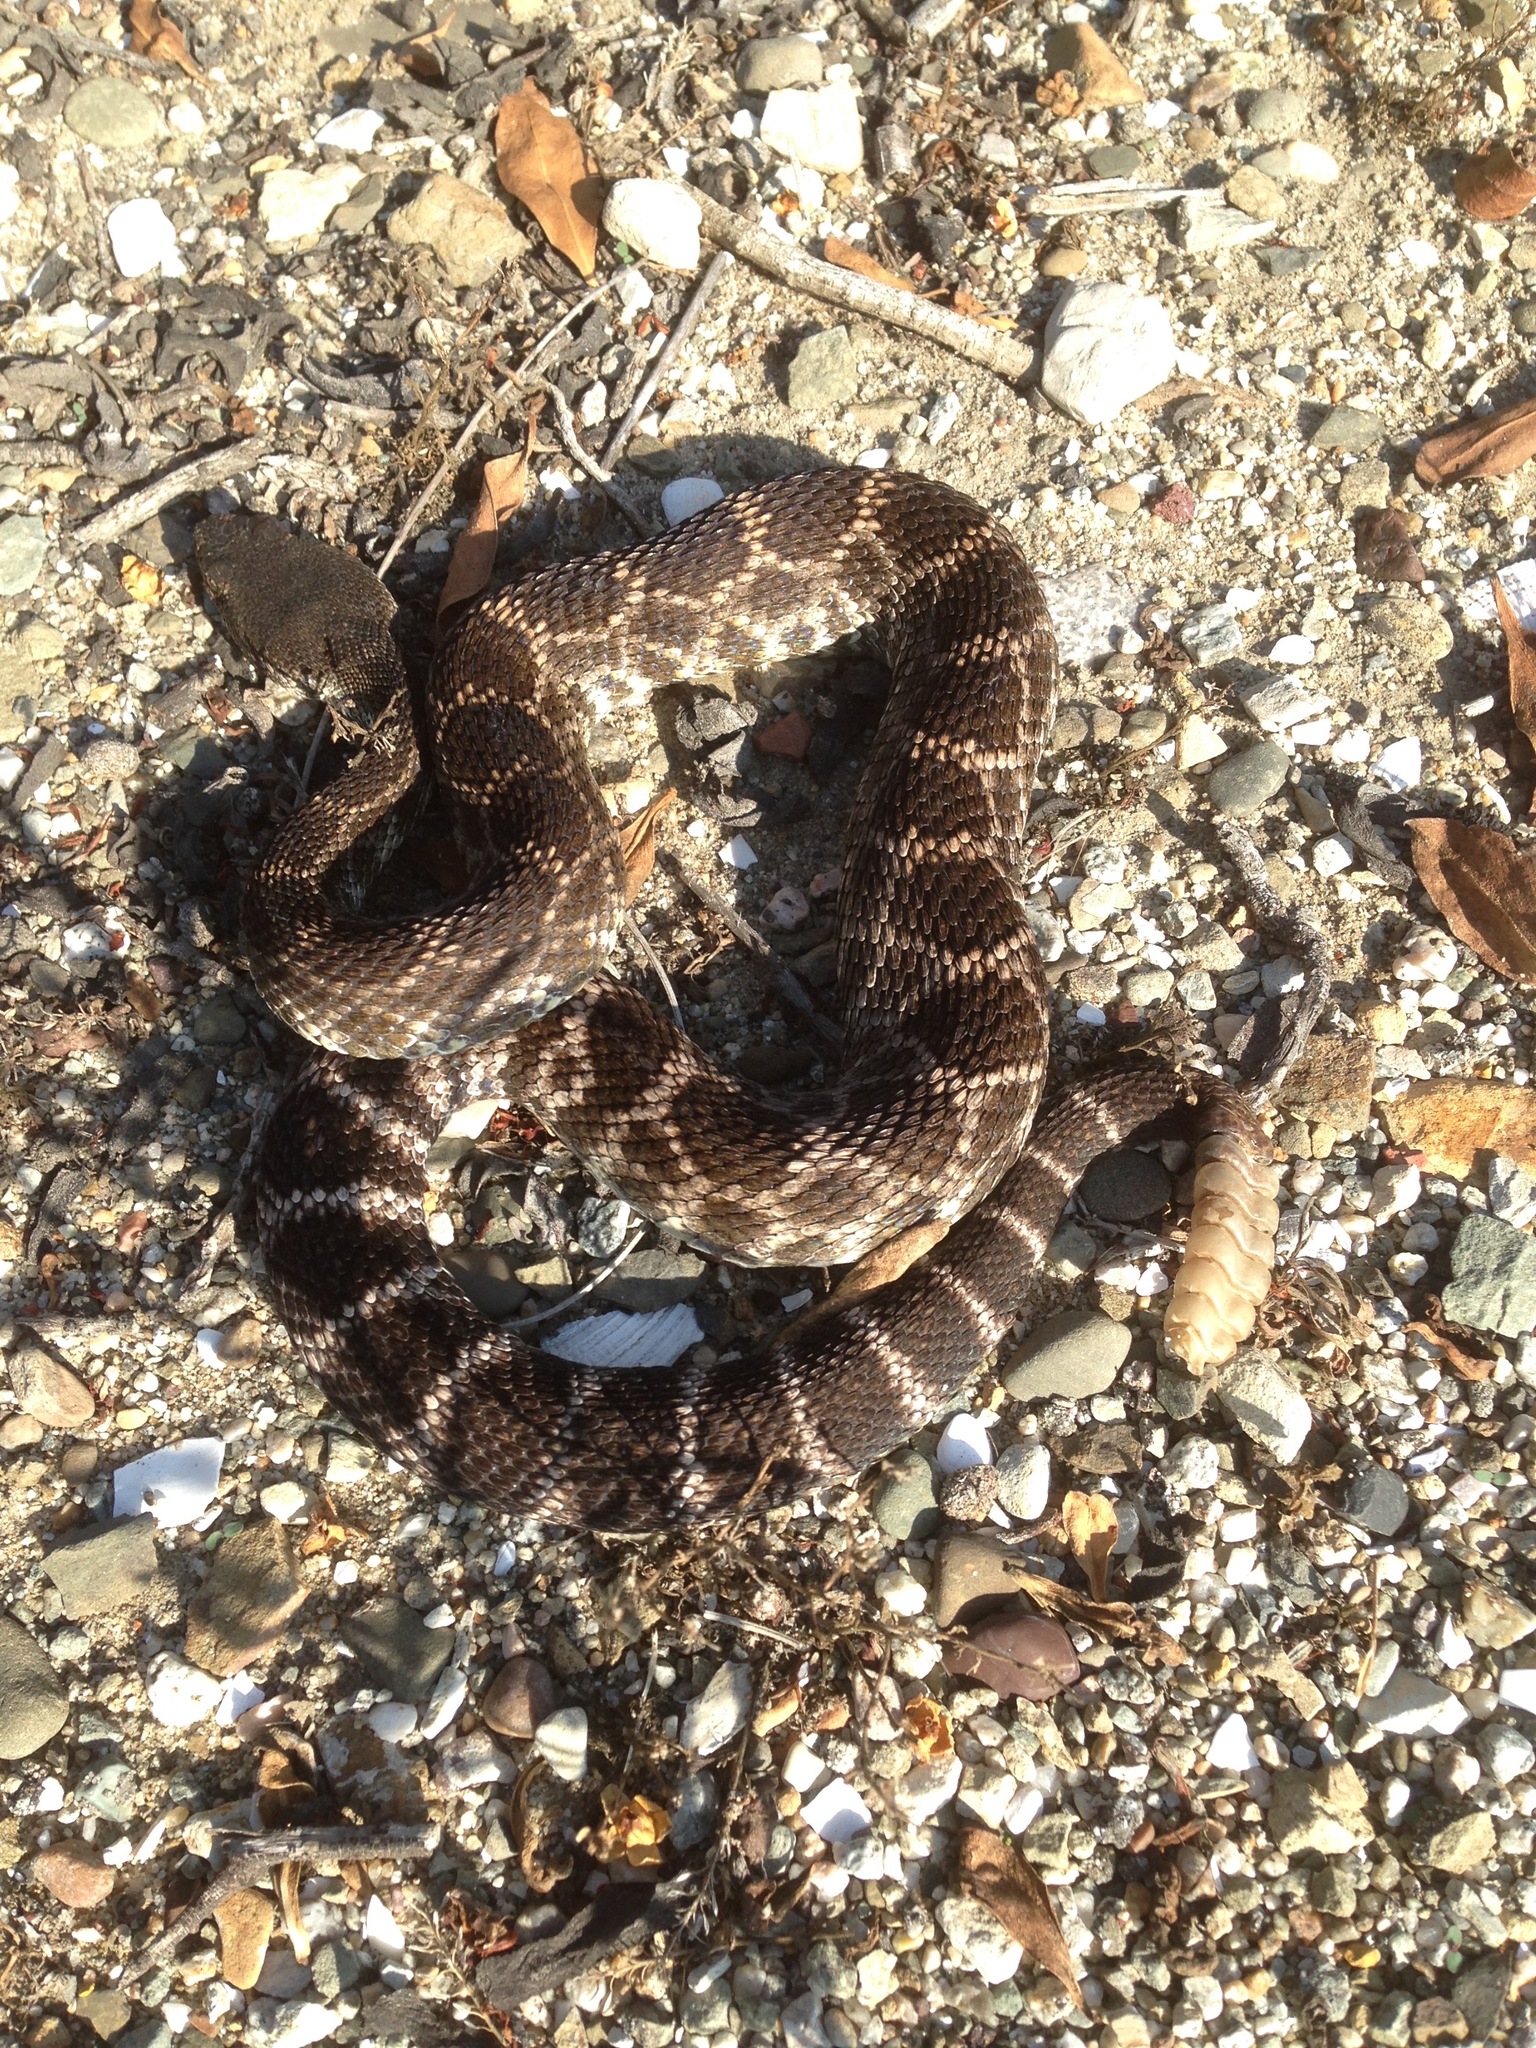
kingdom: Animalia
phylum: Chordata
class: Squamata
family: Viperidae
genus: Crotalus
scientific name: Crotalus oreganus
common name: Abyssus
